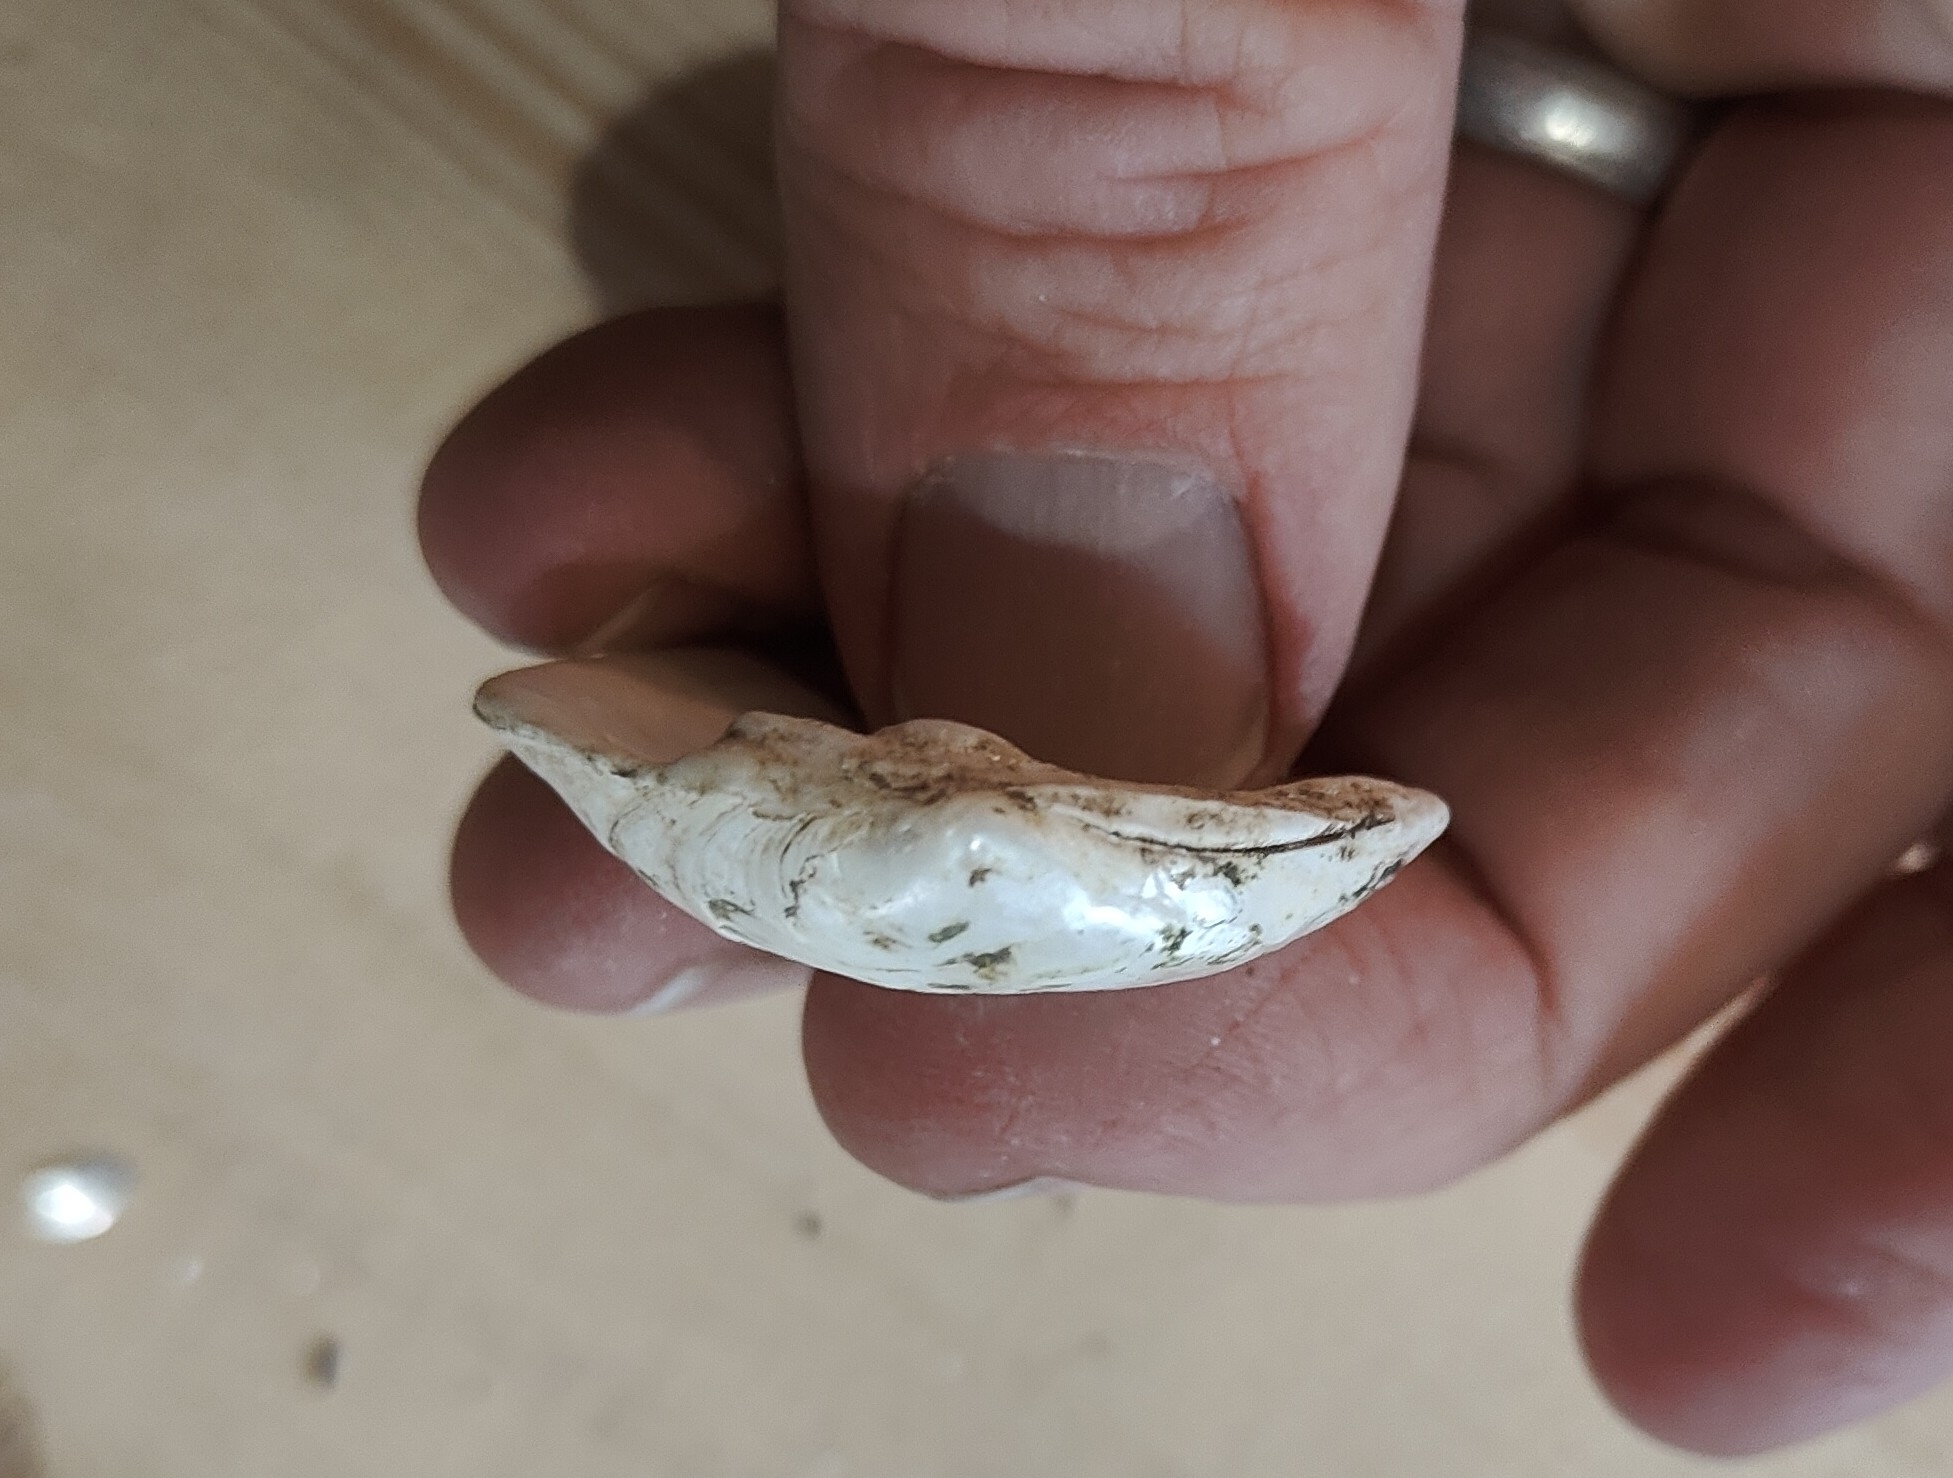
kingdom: Animalia
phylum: Mollusca
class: Bivalvia
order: Unionida
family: Unionidae
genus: Fusconaia
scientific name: Fusconaia flava
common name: Wabash pigtoe
